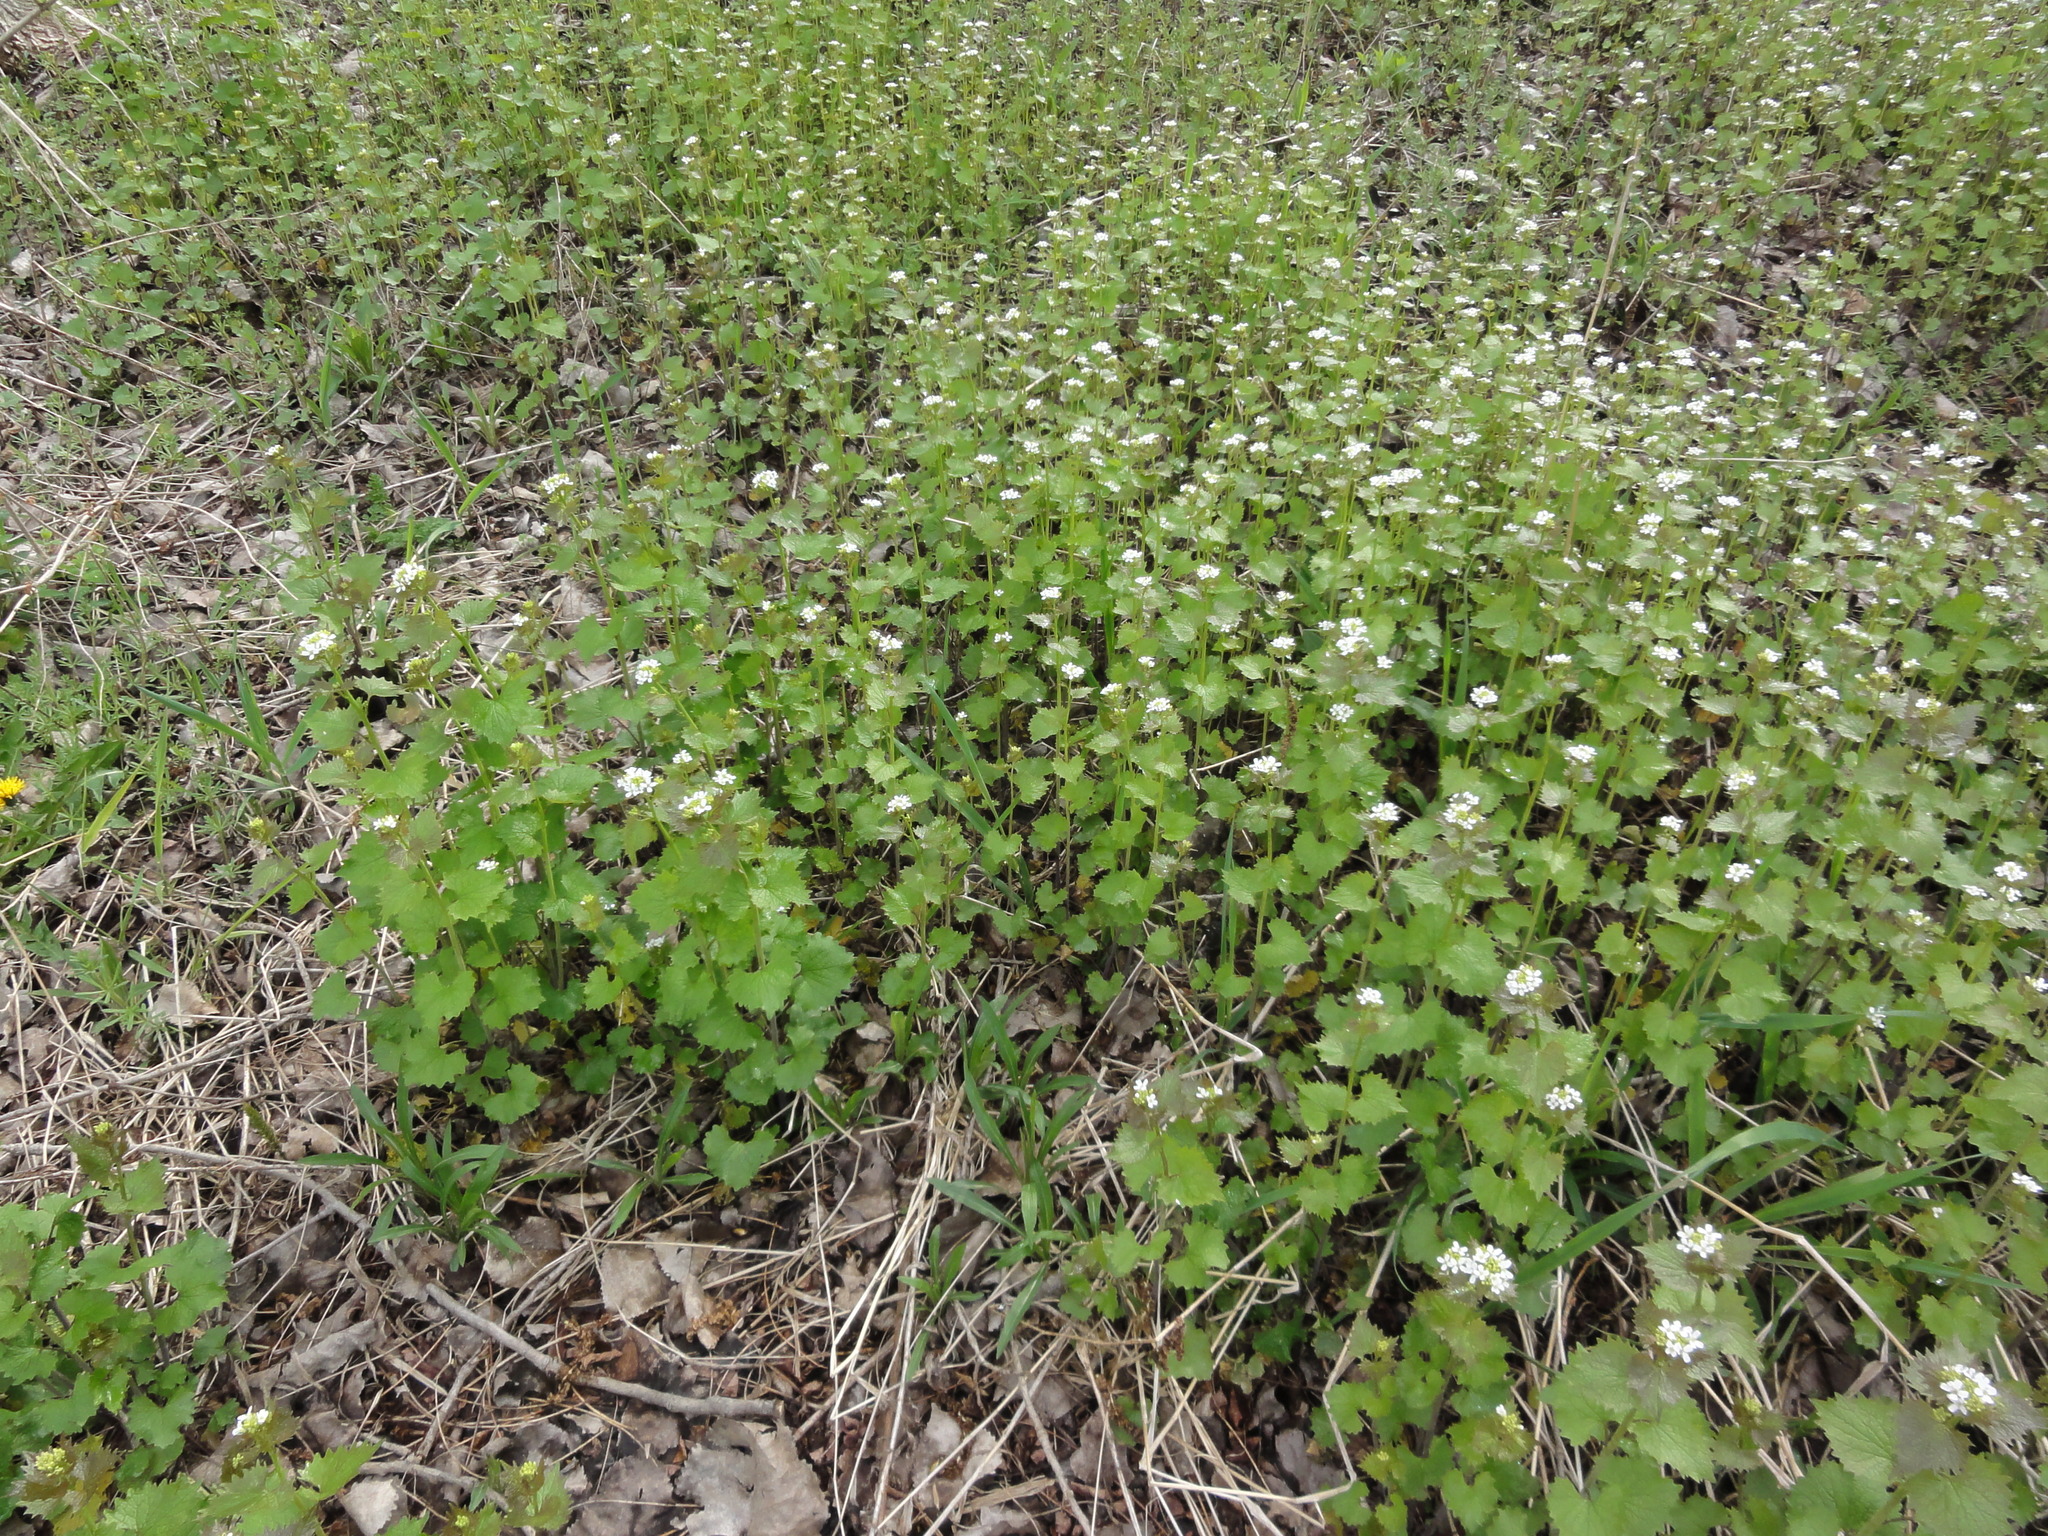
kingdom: Plantae
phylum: Tracheophyta
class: Magnoliopsida
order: Brassicales
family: Brassicaceae
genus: Alliaria
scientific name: Alliaria petiolata
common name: Garlic mustard
